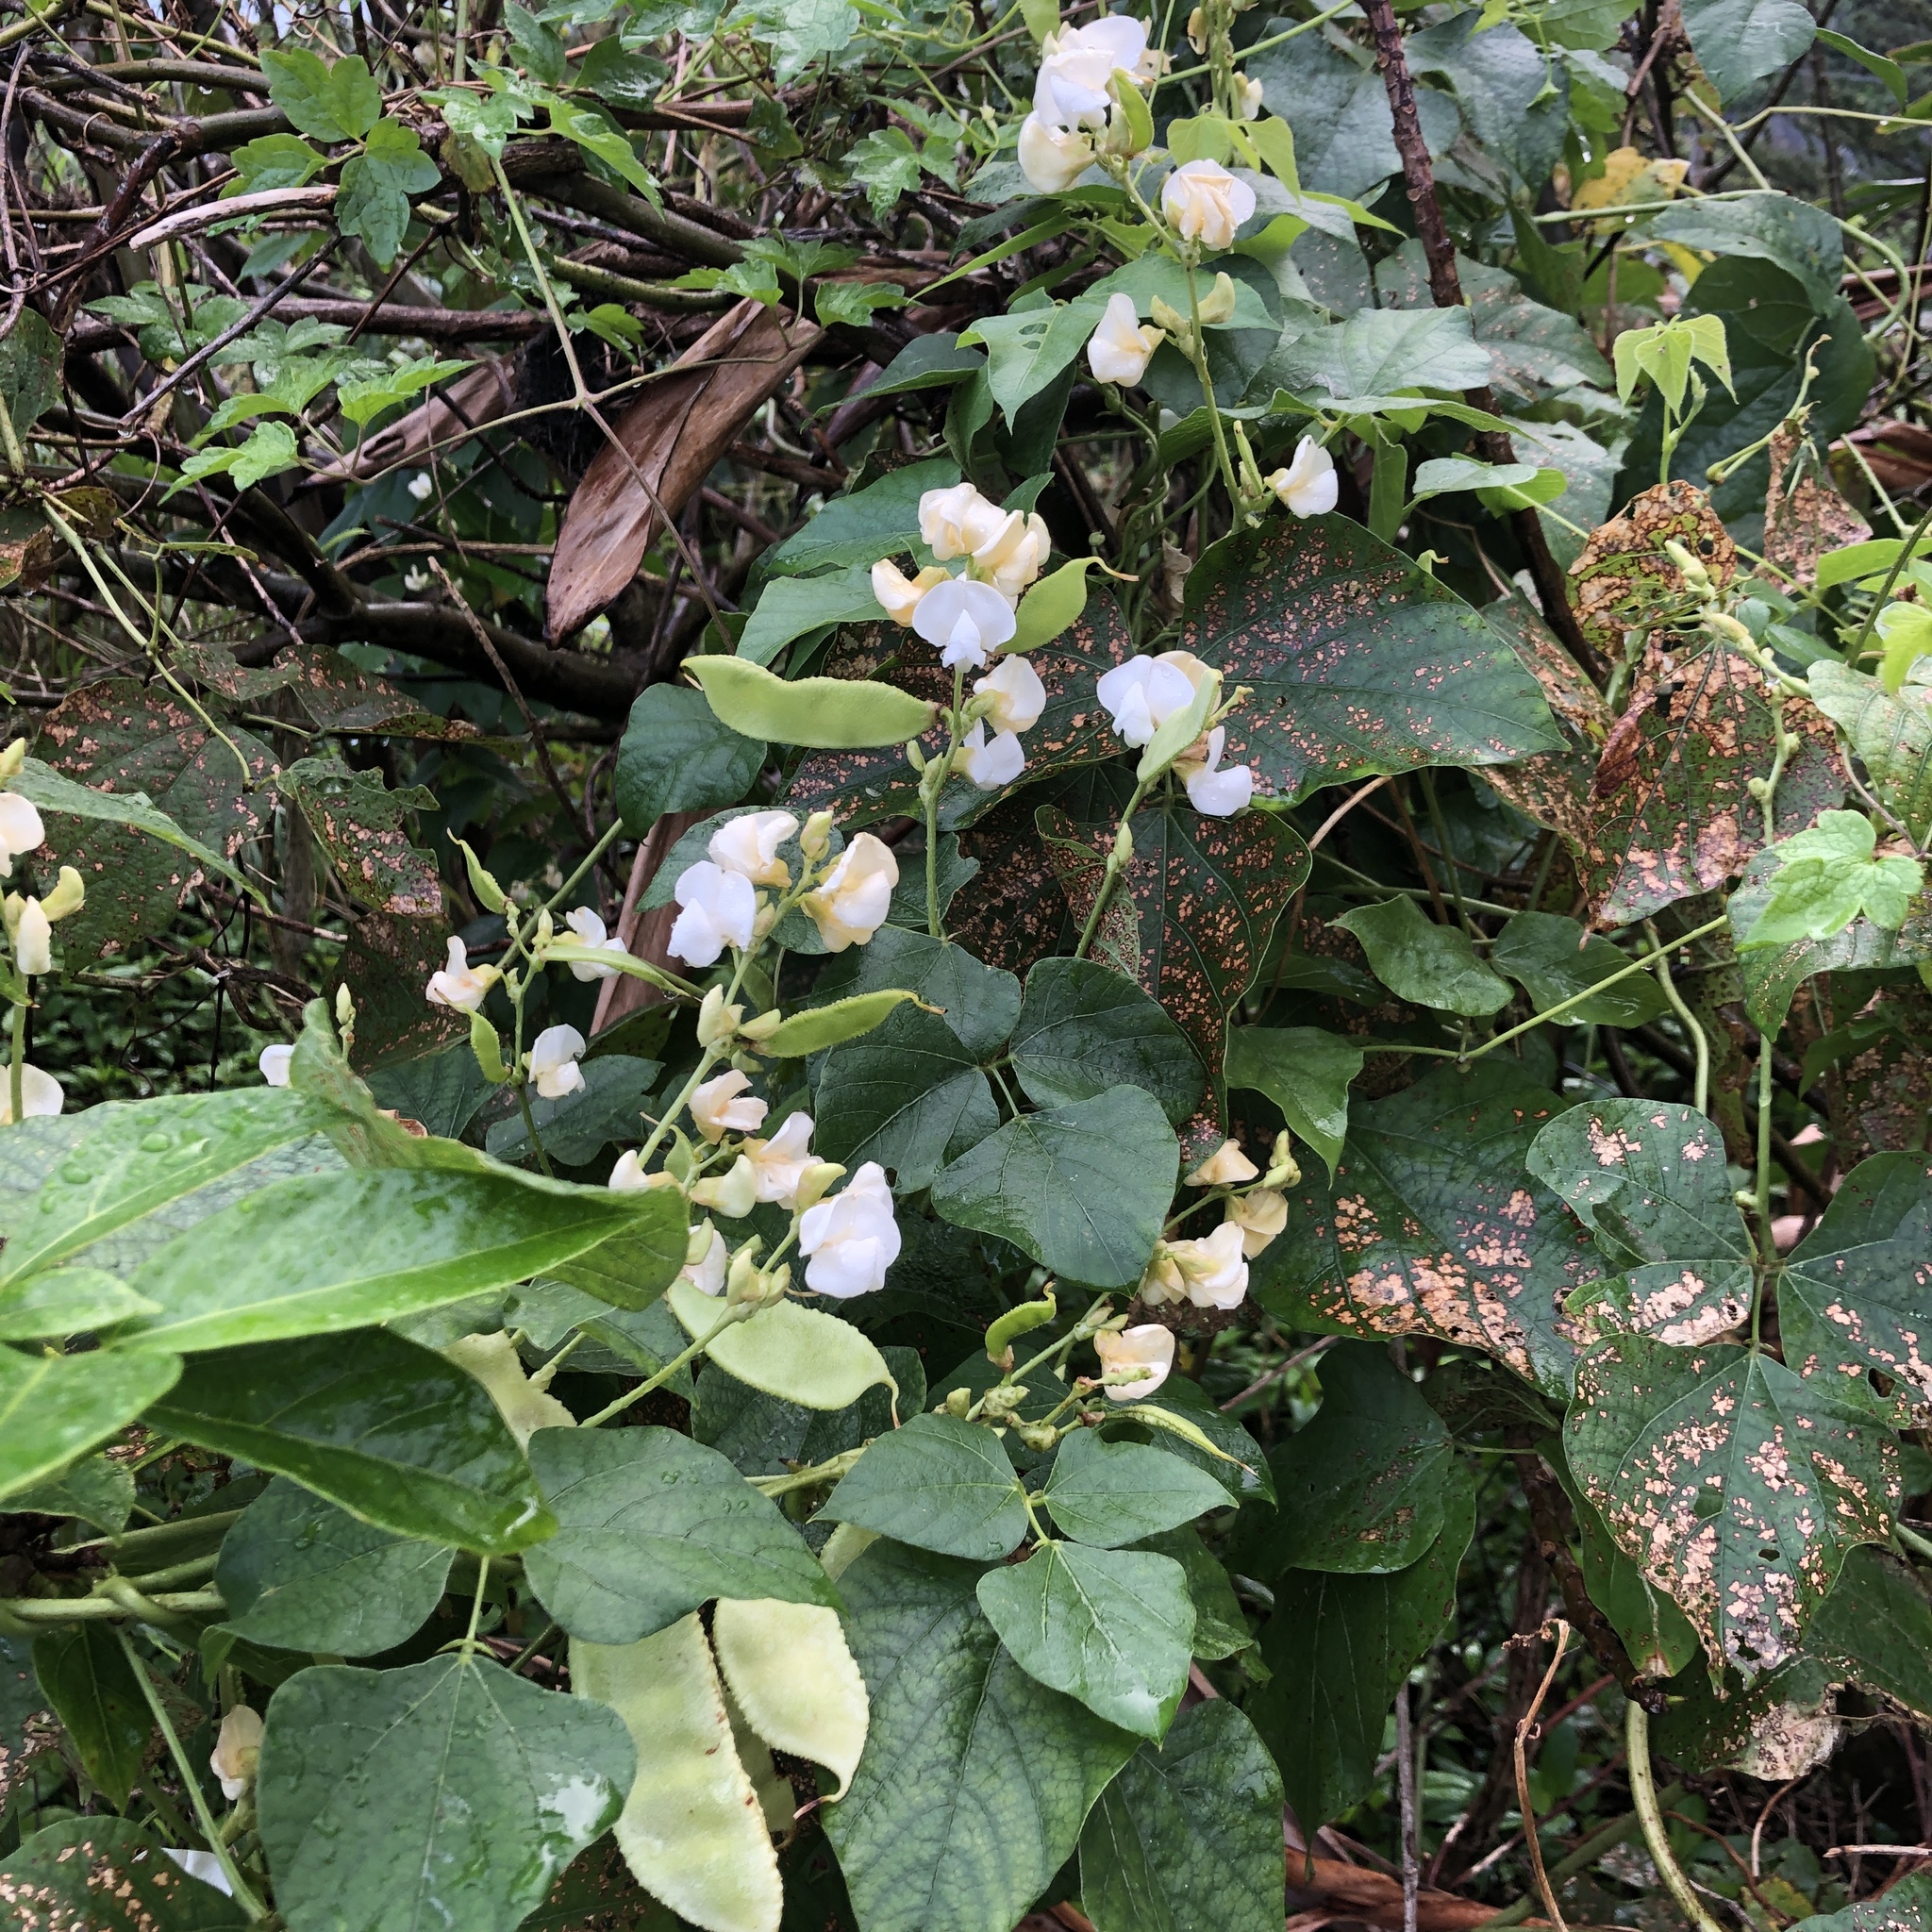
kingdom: Plantae
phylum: Tracheophyta
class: Magnoliopsida
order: Fabales
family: Fabaceae
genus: Lablab
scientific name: Lablab purpureus
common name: Lablab-bean
